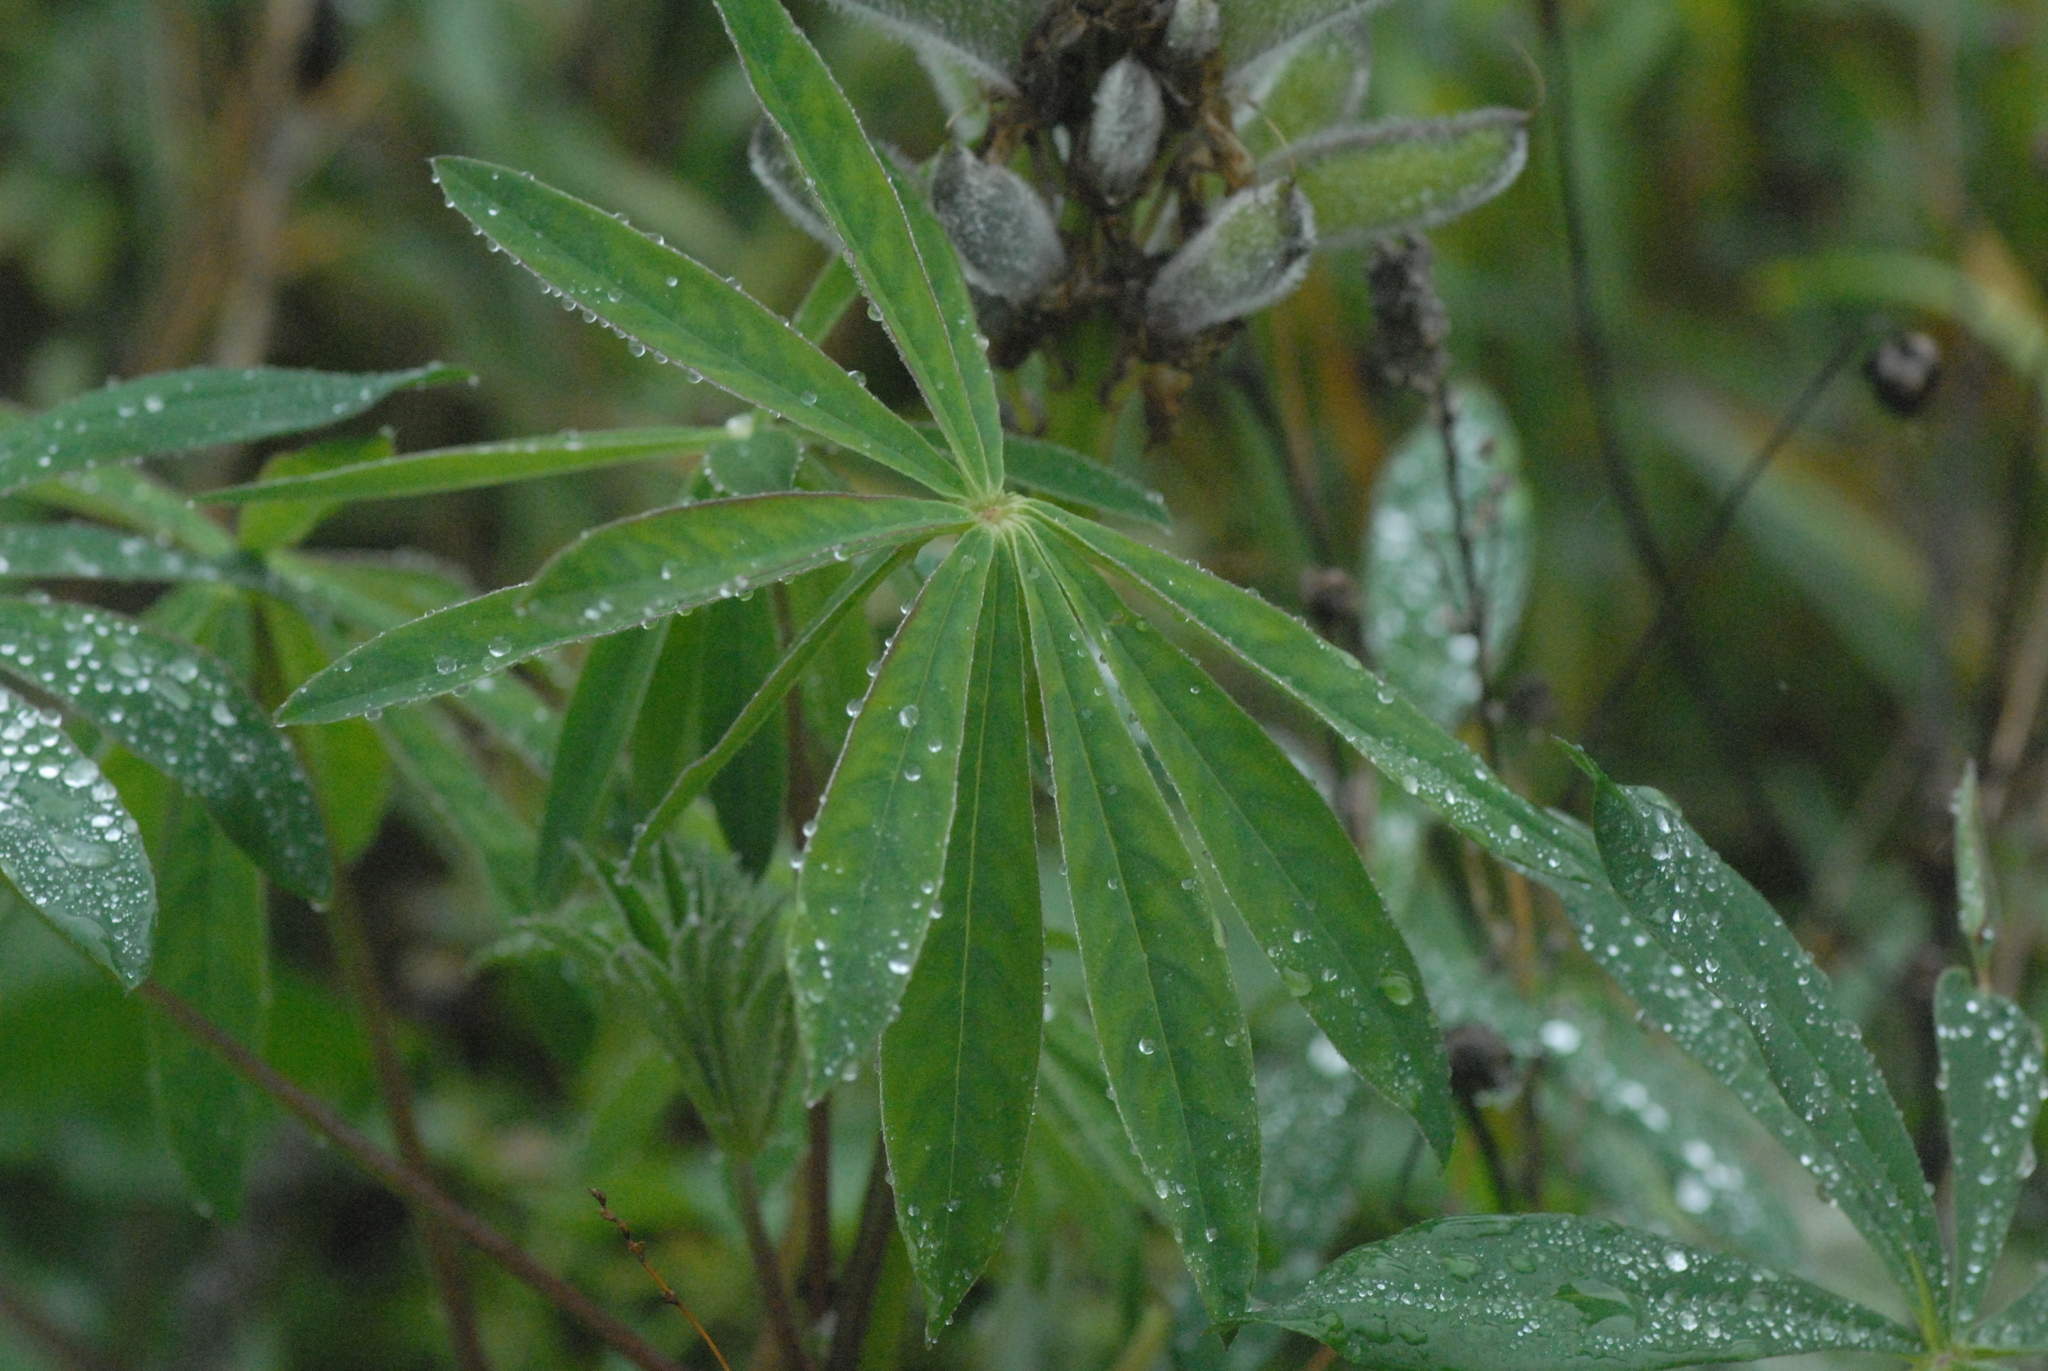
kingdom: Plantae
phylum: Tracheophyta
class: Magnoliopsida
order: Fabales
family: Fabaceae
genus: Lupinus
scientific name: Lupinus polyphyllus
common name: Garden lupin
